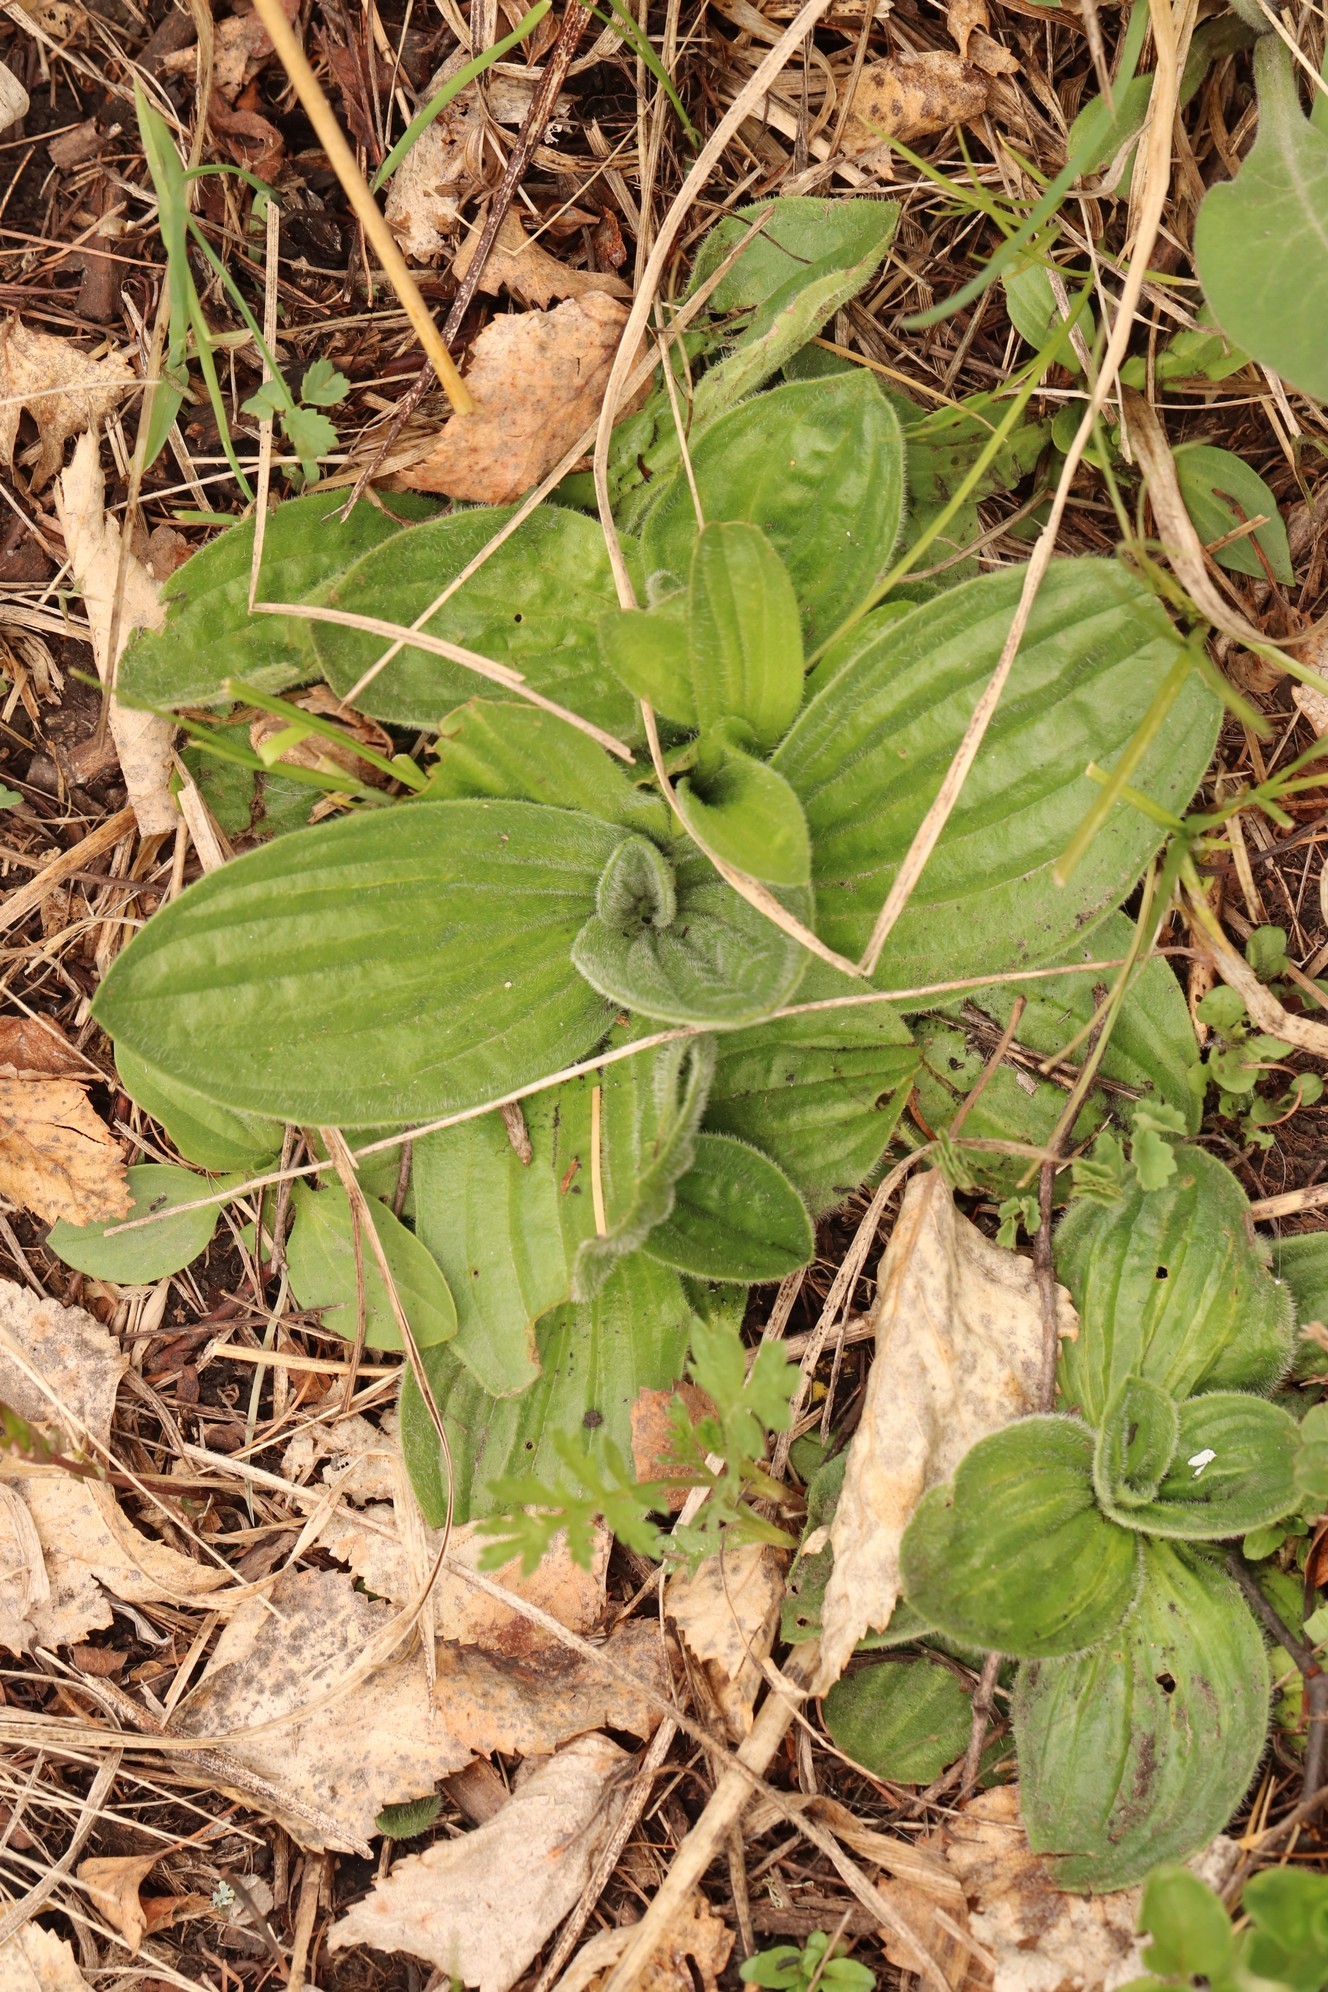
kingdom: Plantae
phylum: Tracheophyta
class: Magnoliopsida
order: Lamiales
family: Plantaginaceae
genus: Plantago
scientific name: Plantago media
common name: Hoary plantain
